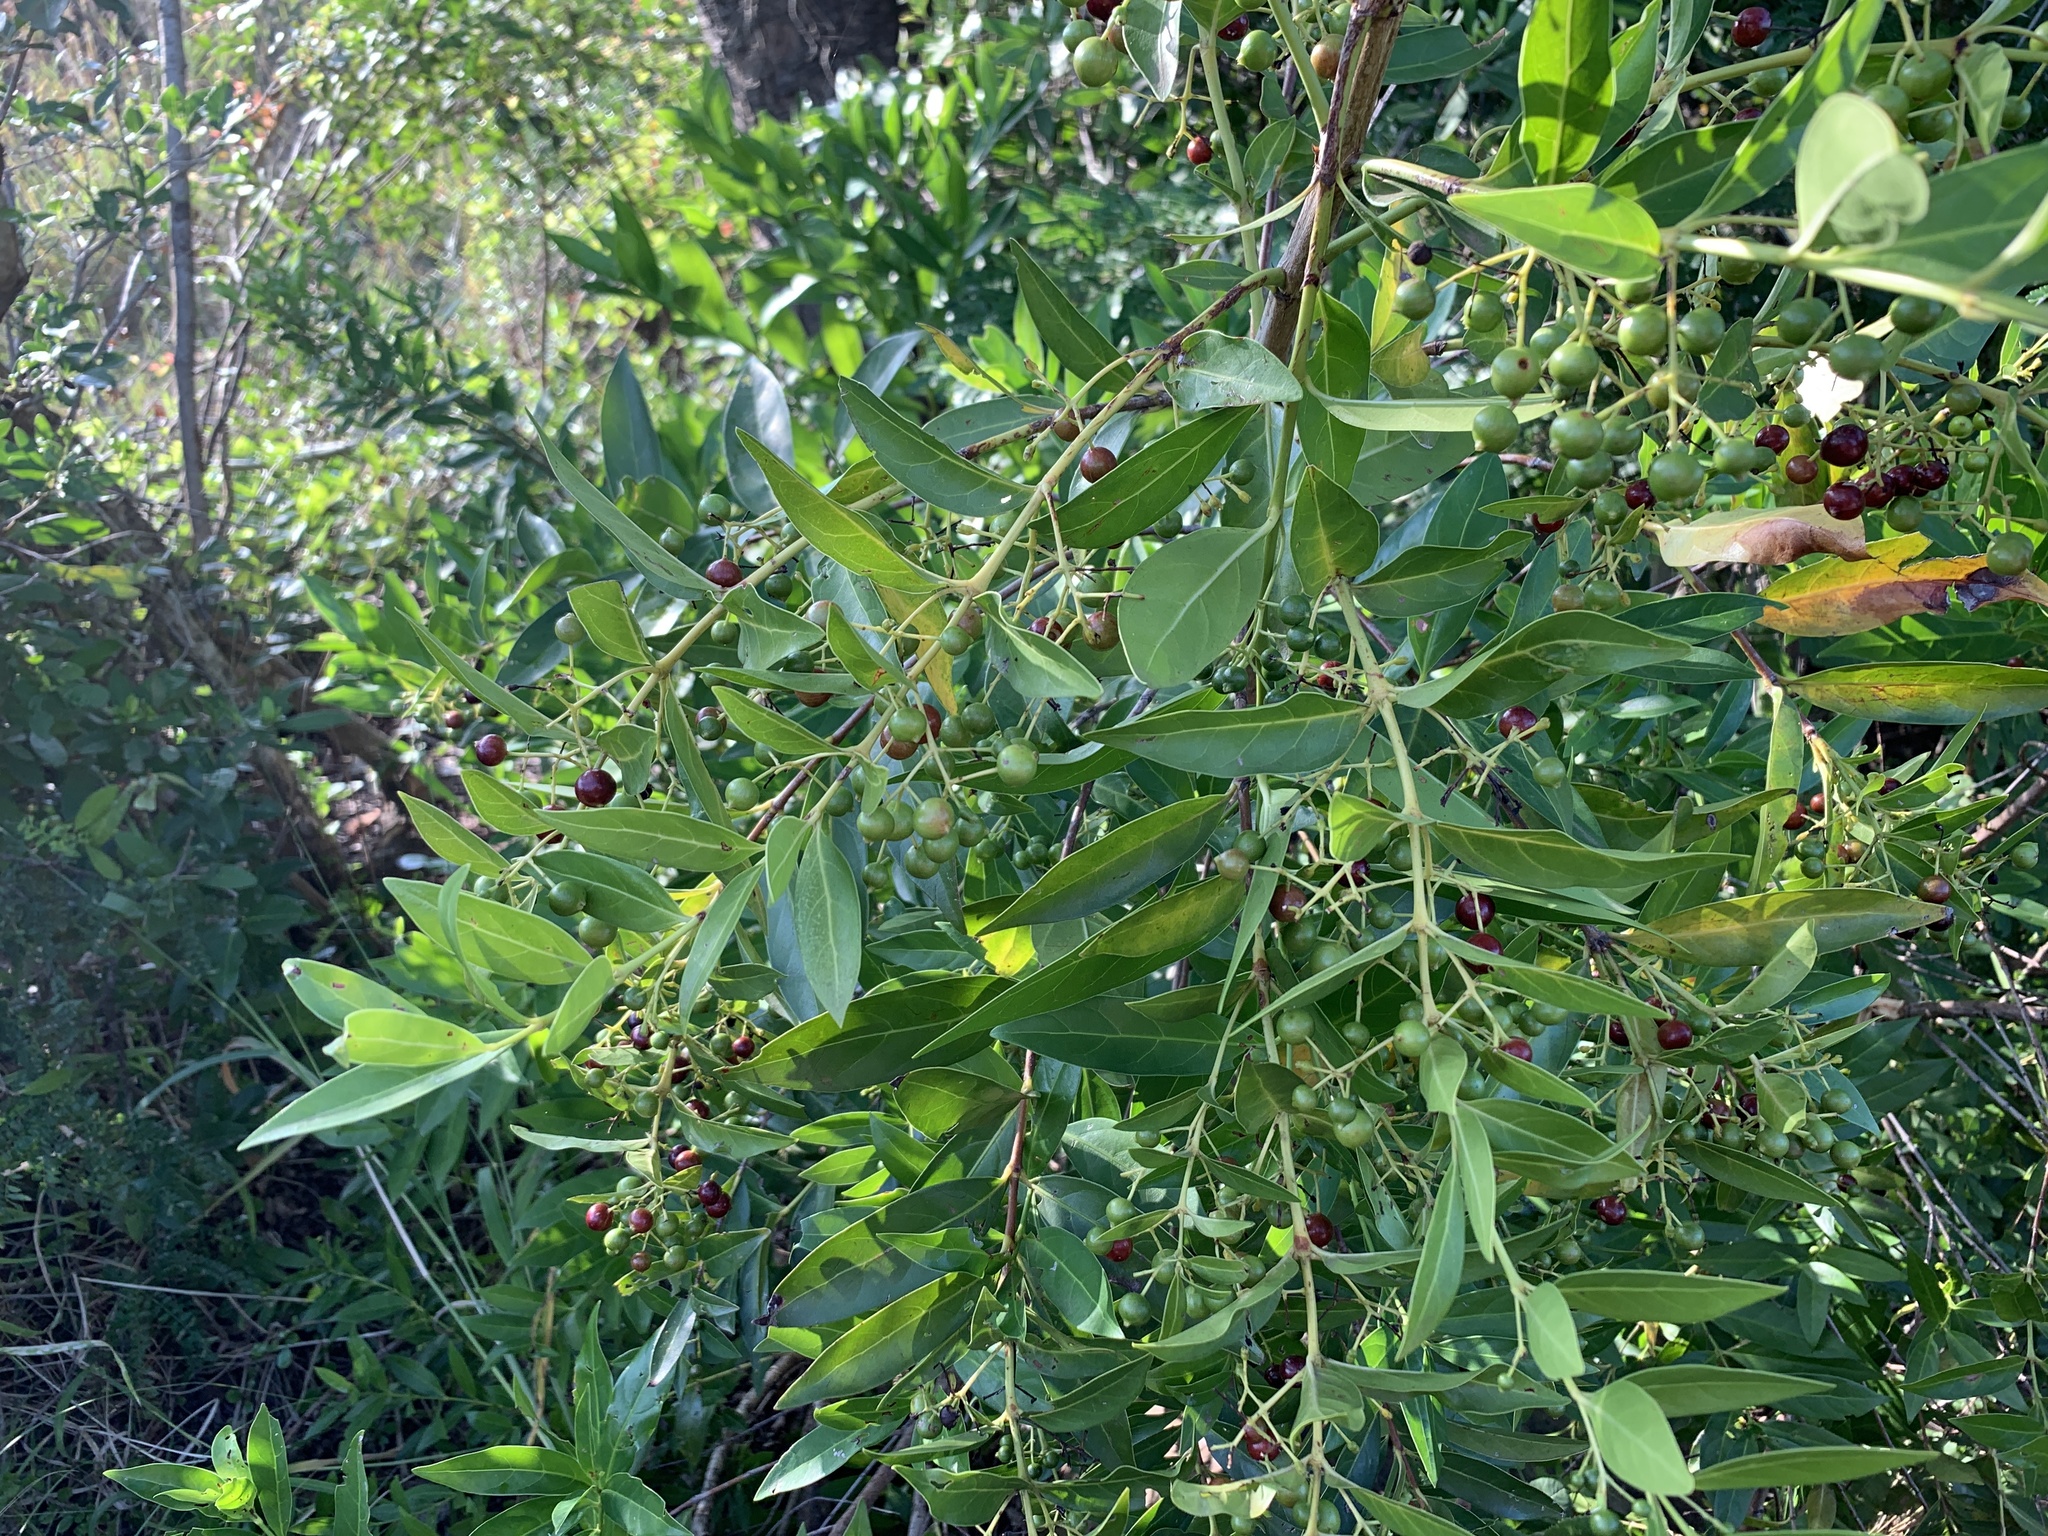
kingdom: Plantae
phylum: Tracheophyta
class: Magnoliopsida
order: Gentianales
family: Rubiaceae
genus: Kraussia
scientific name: Kraussia floribunda
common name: Rhino-coffee
